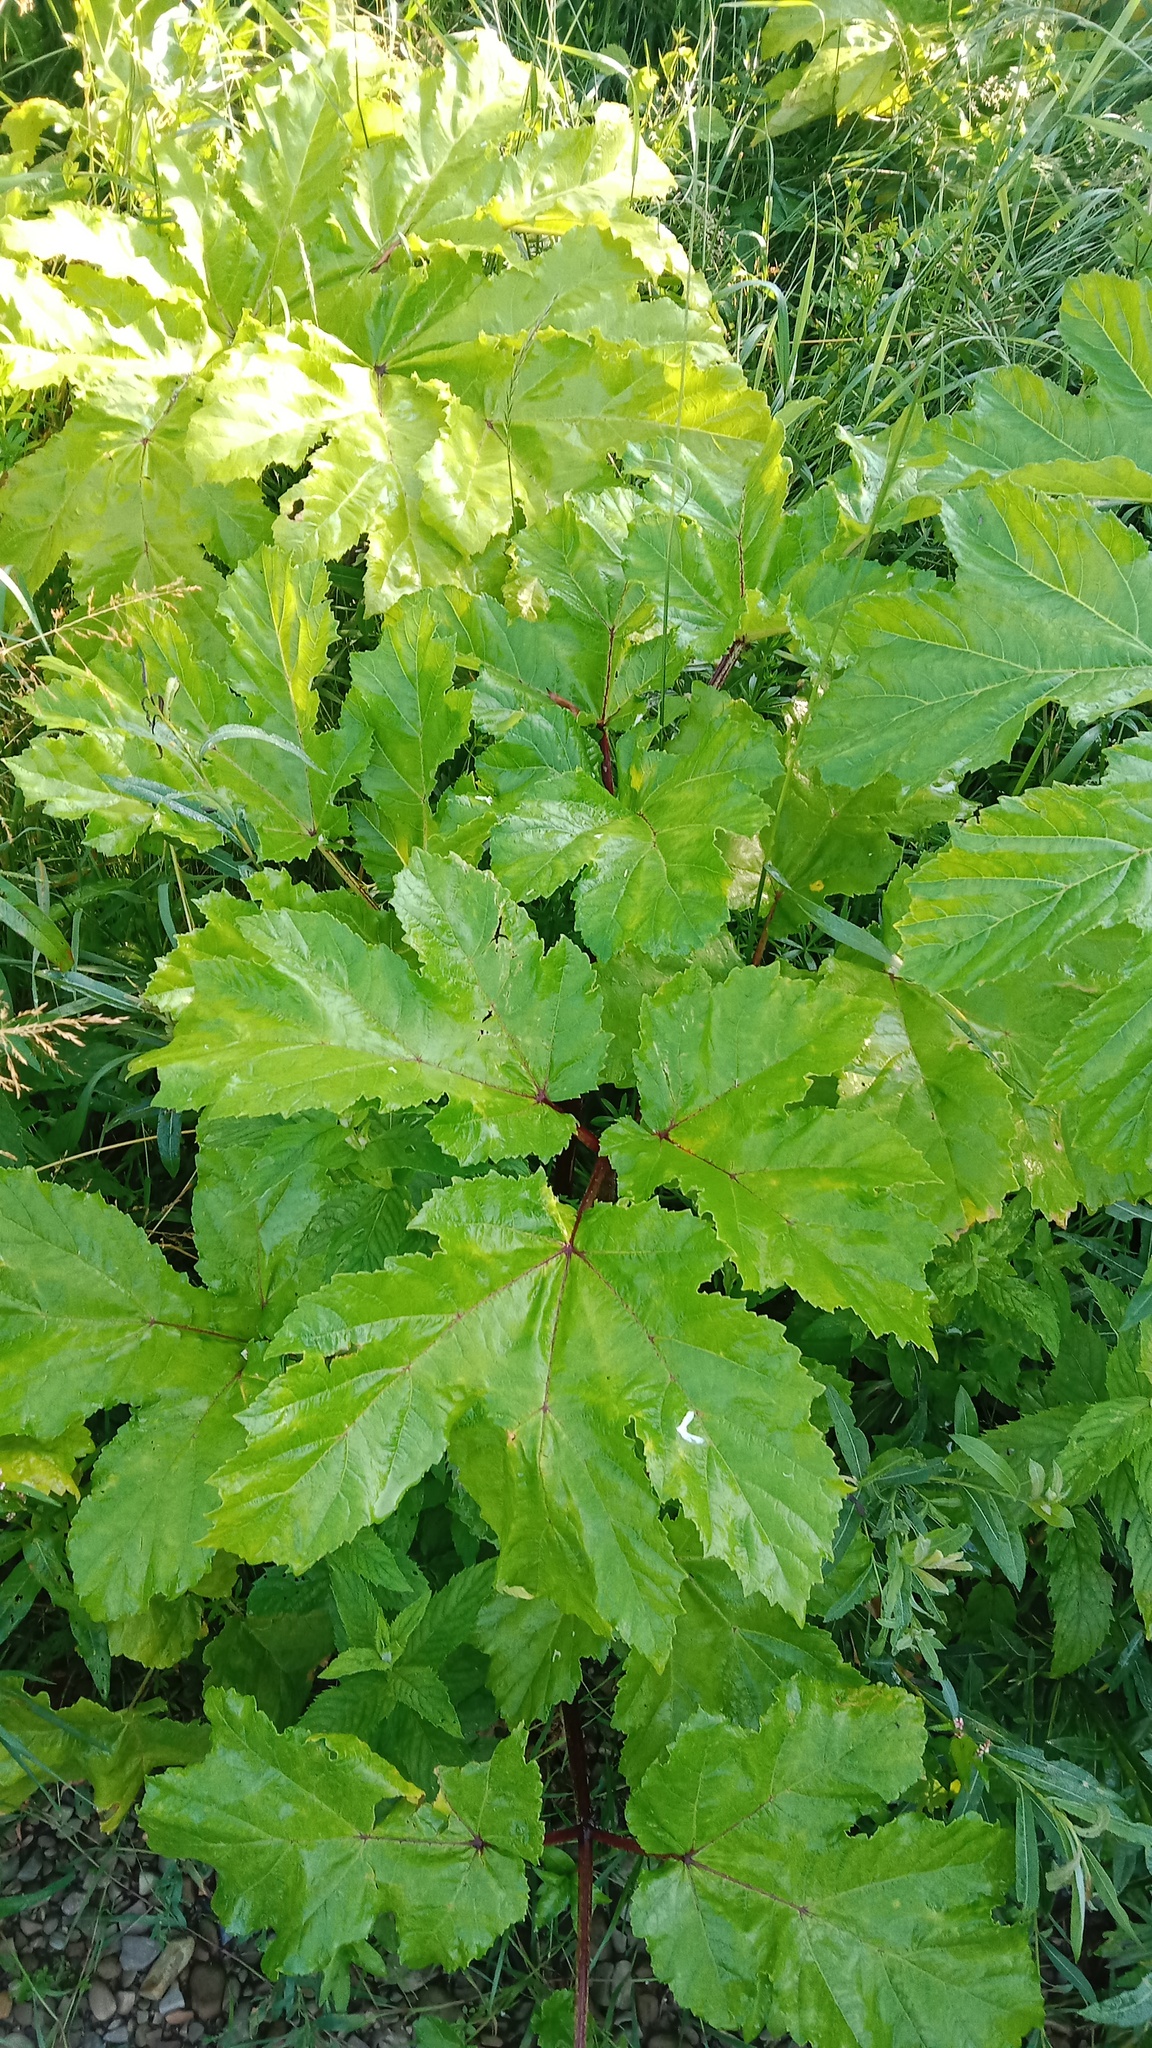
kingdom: Plantae
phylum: Tracheophyta
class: Magnoliopsida
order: Apiales
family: Apiaceae
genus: Heracleum
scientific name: Heracleum sosnowskyi
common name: Sosnowsky's hogweed
